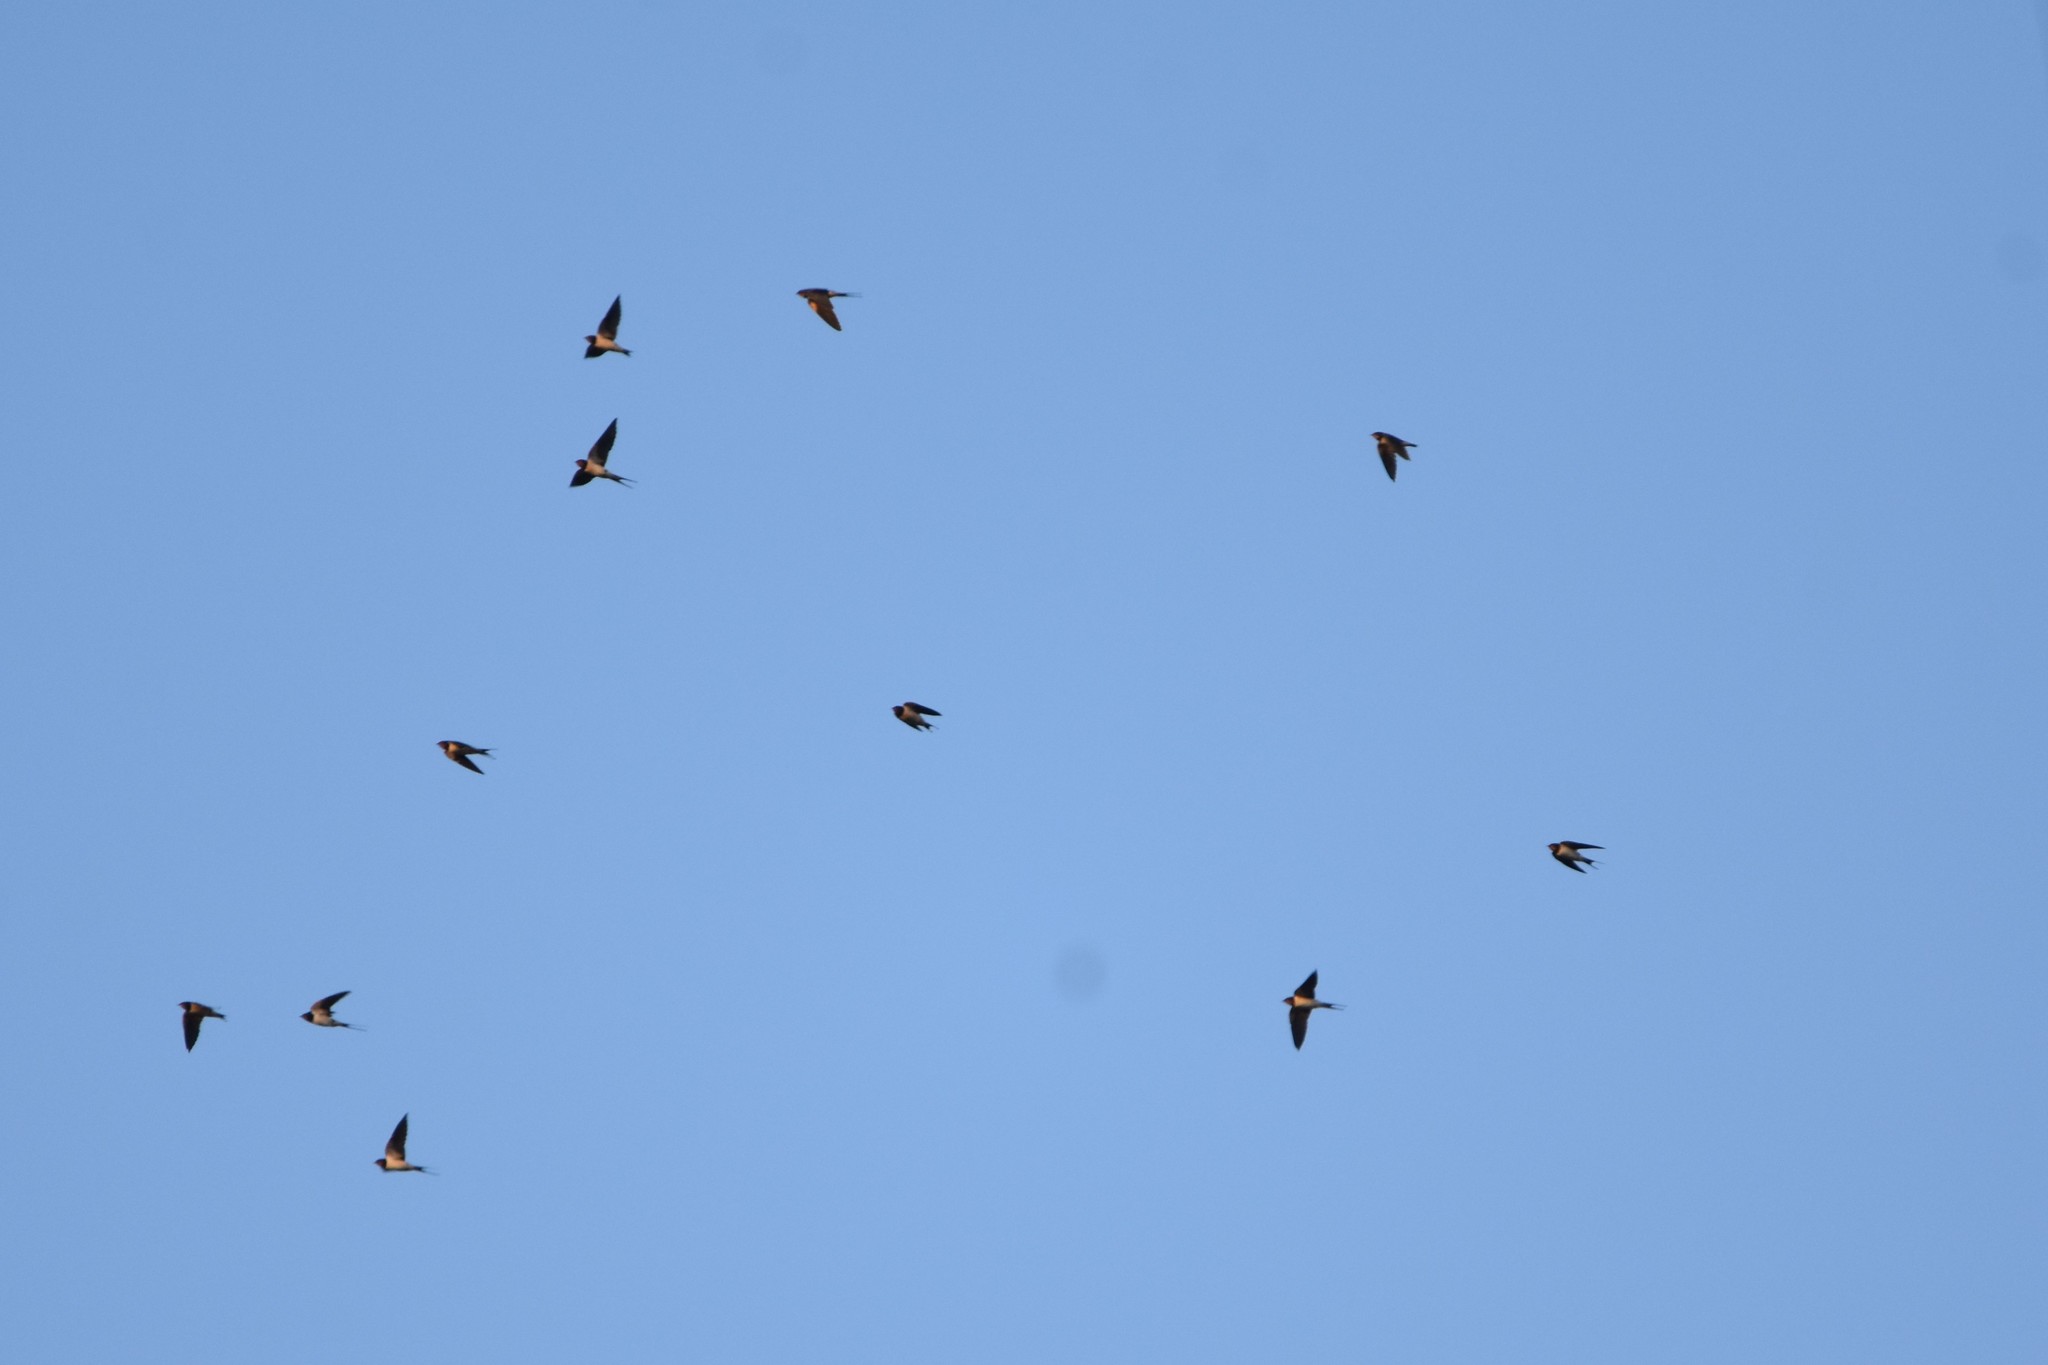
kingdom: Animalia
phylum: Chordata
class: Aves
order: Passeriformes
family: Hirundinidae
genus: Hirundo
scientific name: Hirundo rustica
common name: Barn swallow
